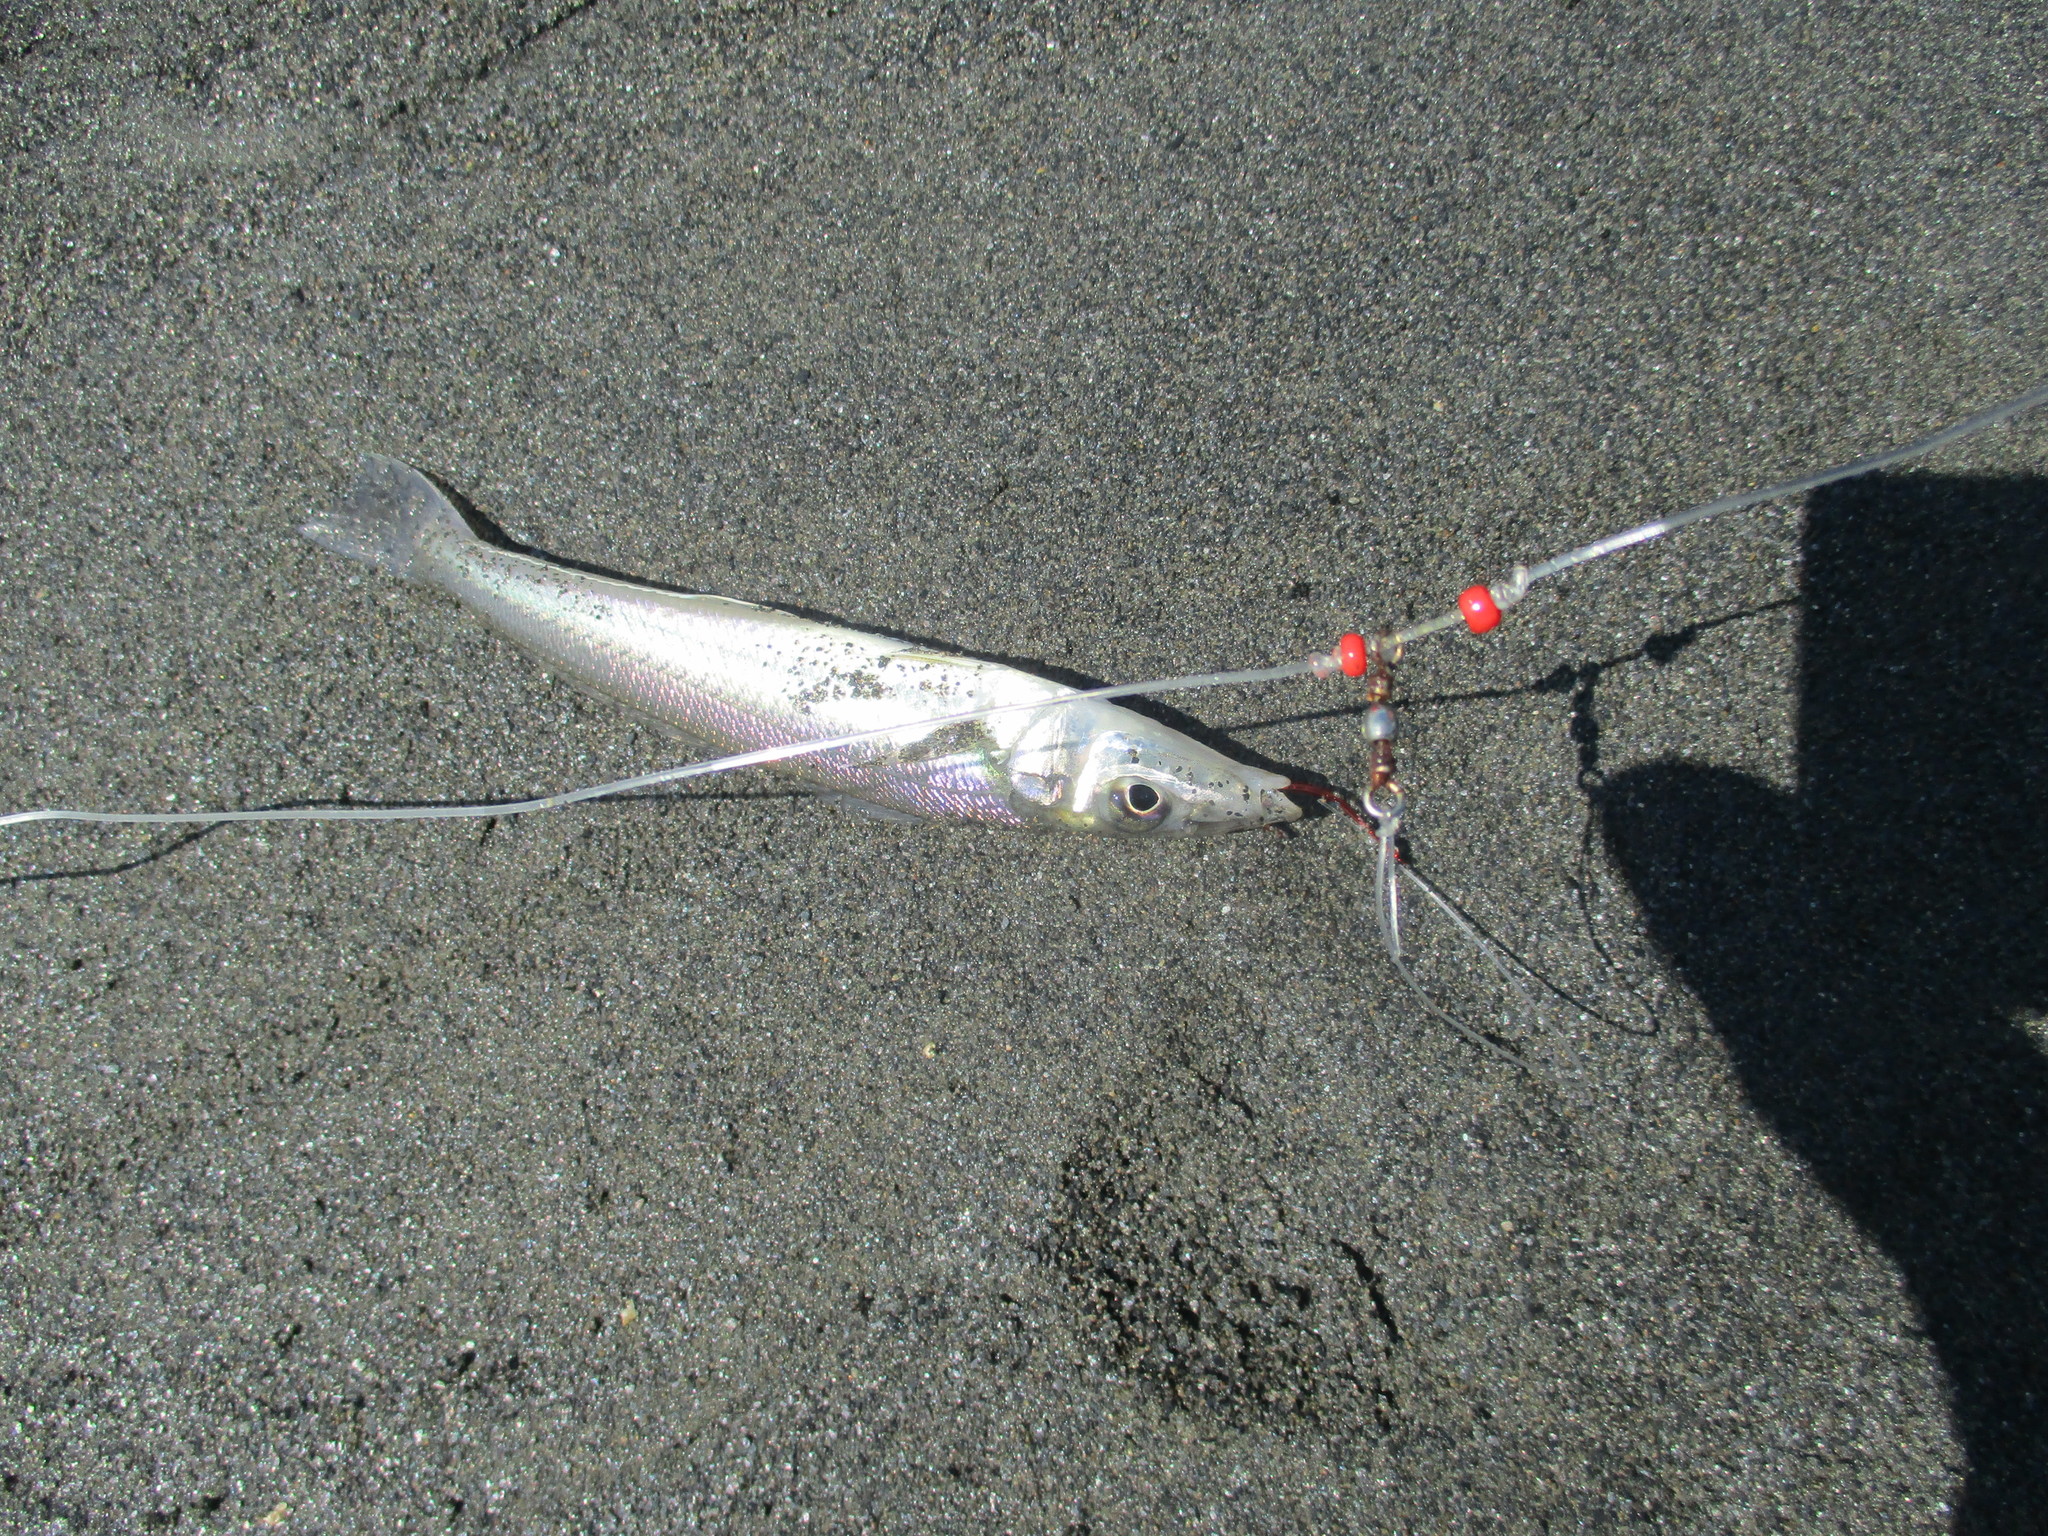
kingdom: Animalia
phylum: Chordata
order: Perciformes
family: Sillaginidae
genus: Sillago
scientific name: Sillago sihama
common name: Silver sillago
